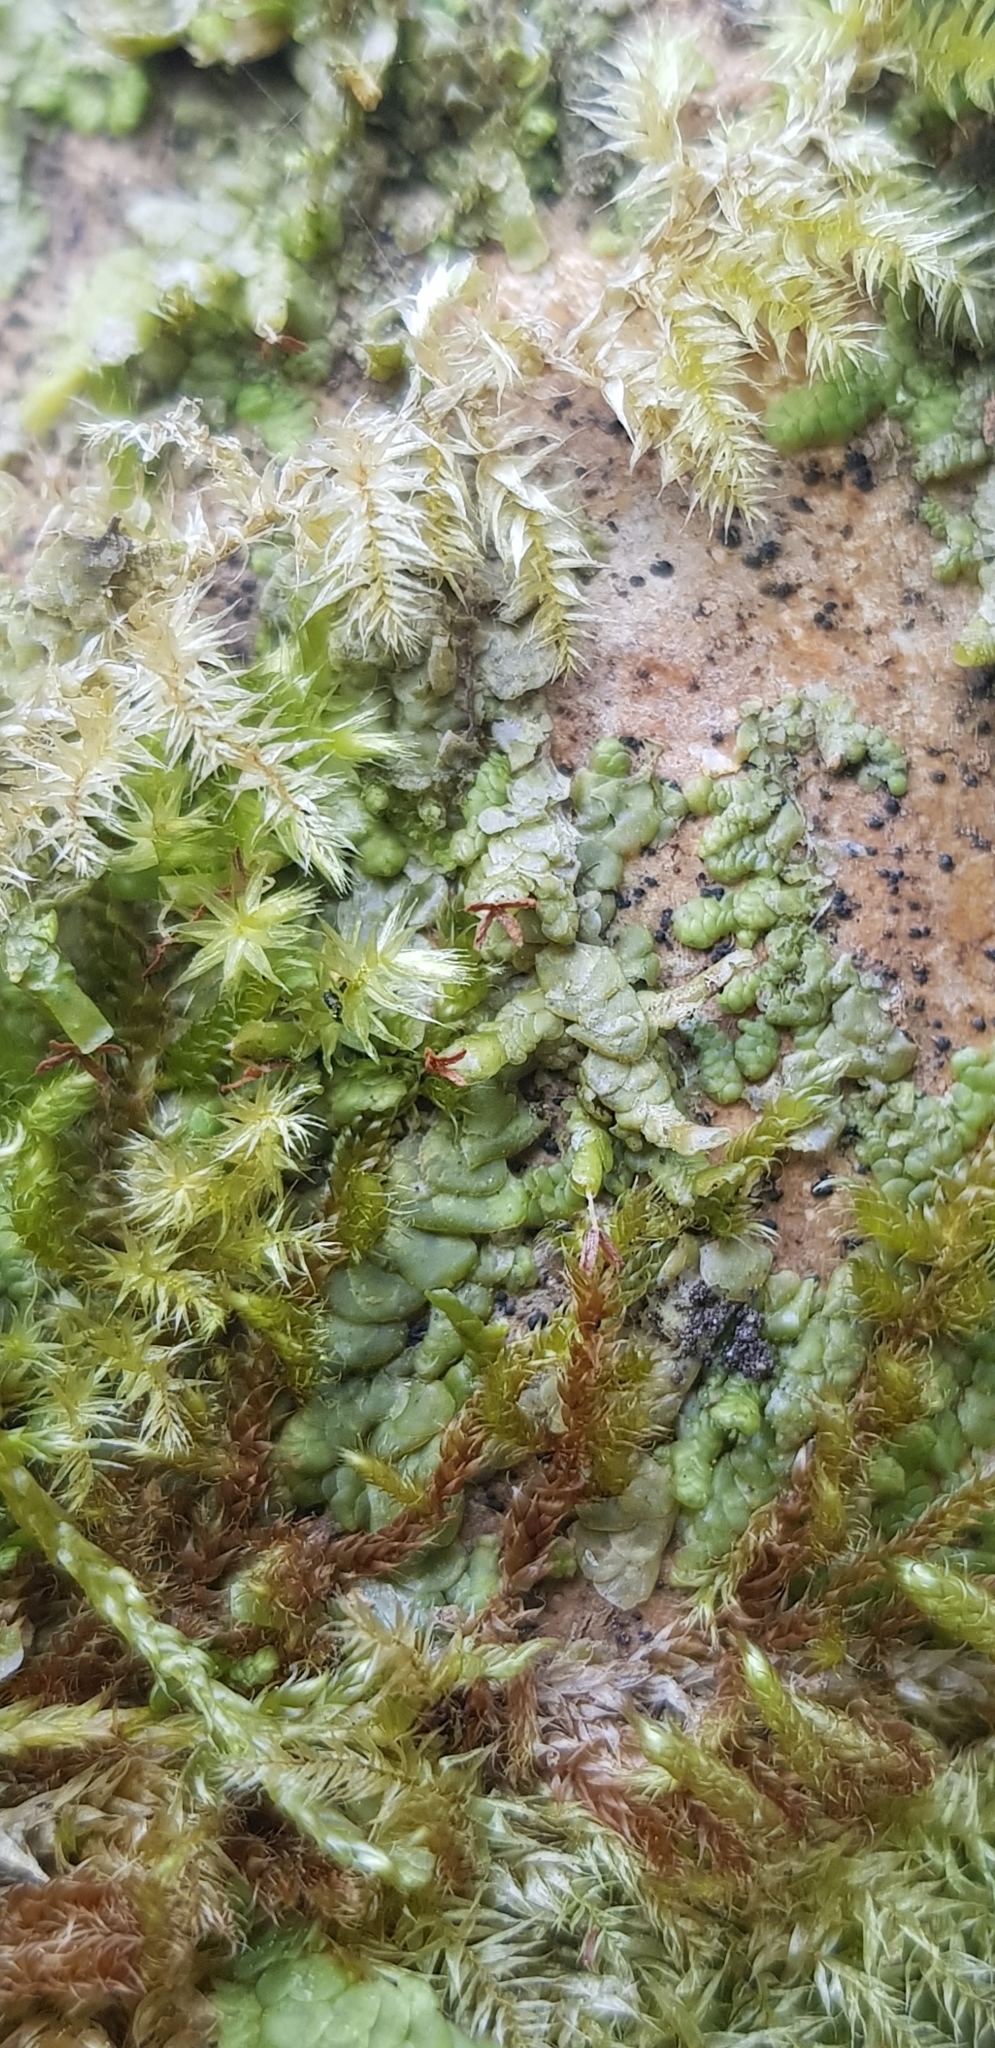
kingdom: Plantae
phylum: Marchantiophyta
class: Jungermanniopsida
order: Porellales
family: Radulaceae
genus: Radula
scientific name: Radula complanata
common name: Flat-leaved scalewort
